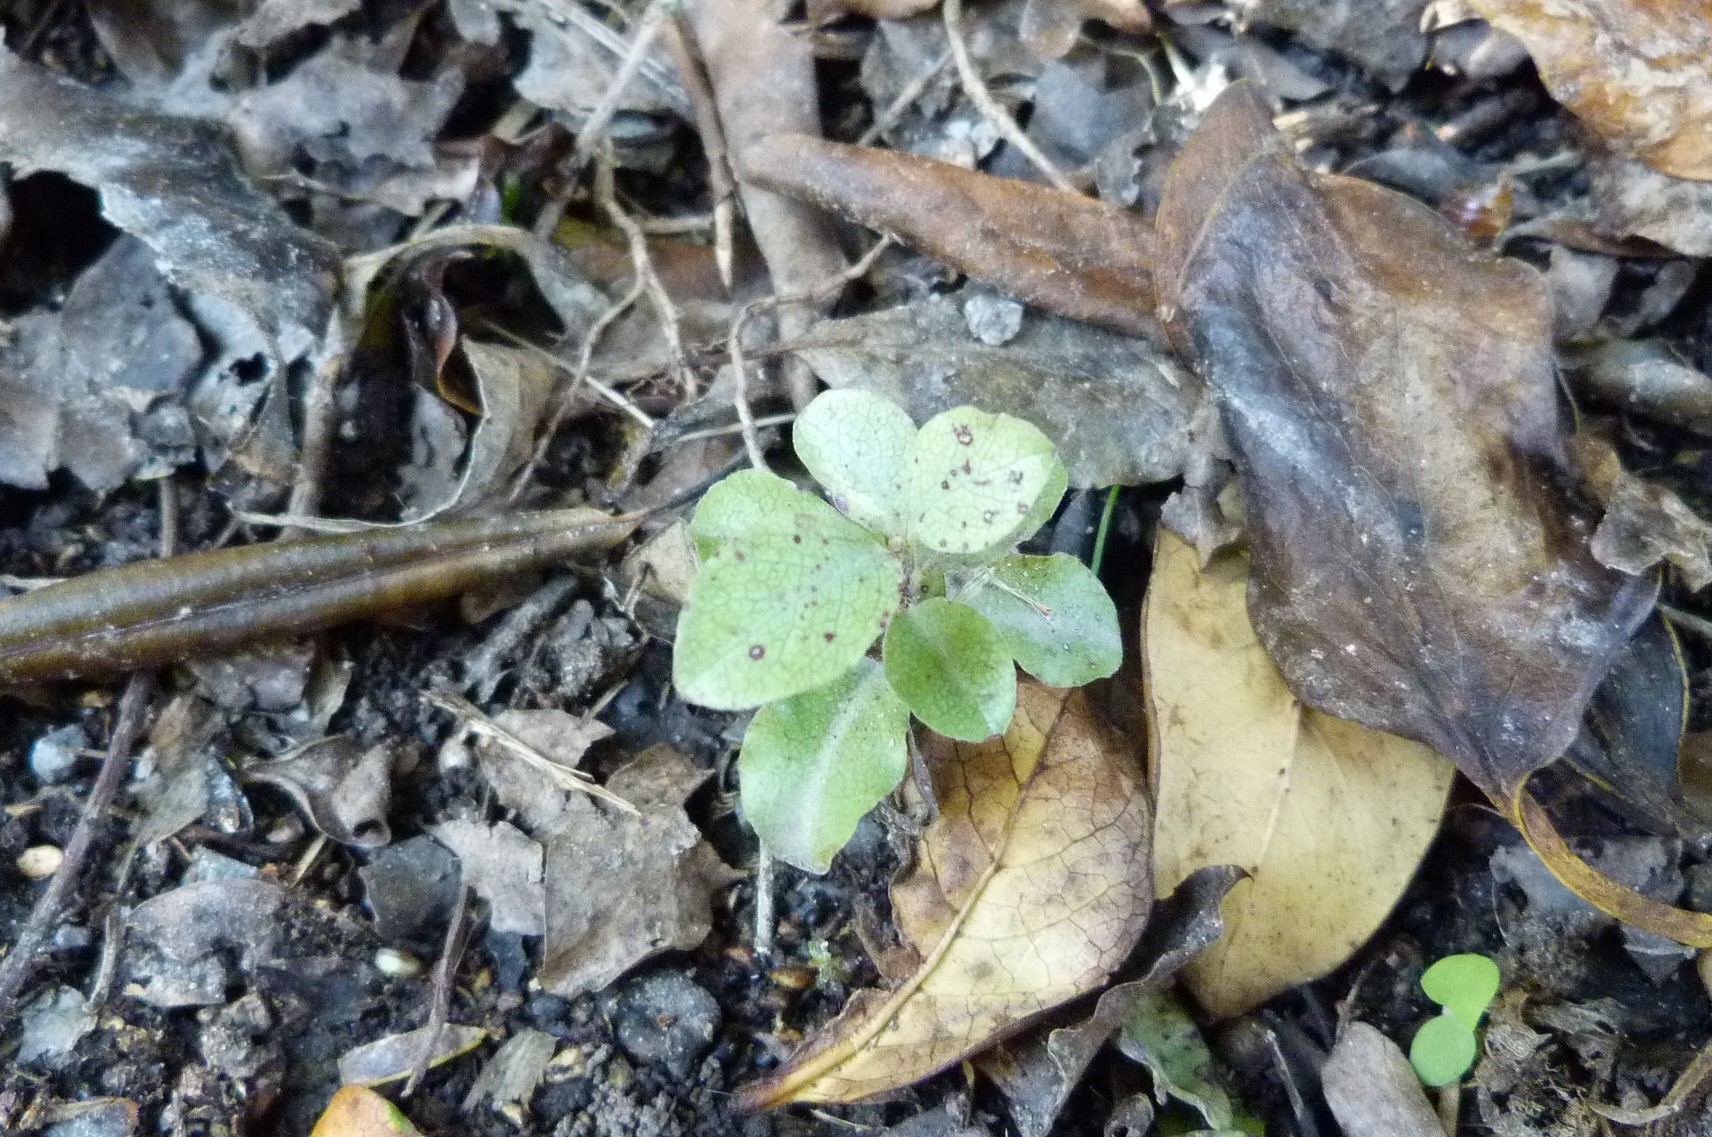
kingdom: Plantae
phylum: Tracheophyta
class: Magnoliopsida
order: Apiales
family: Pittosporaceae
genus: Pittosporum
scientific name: Pittosporum tenuifolium
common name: Kohuhu
